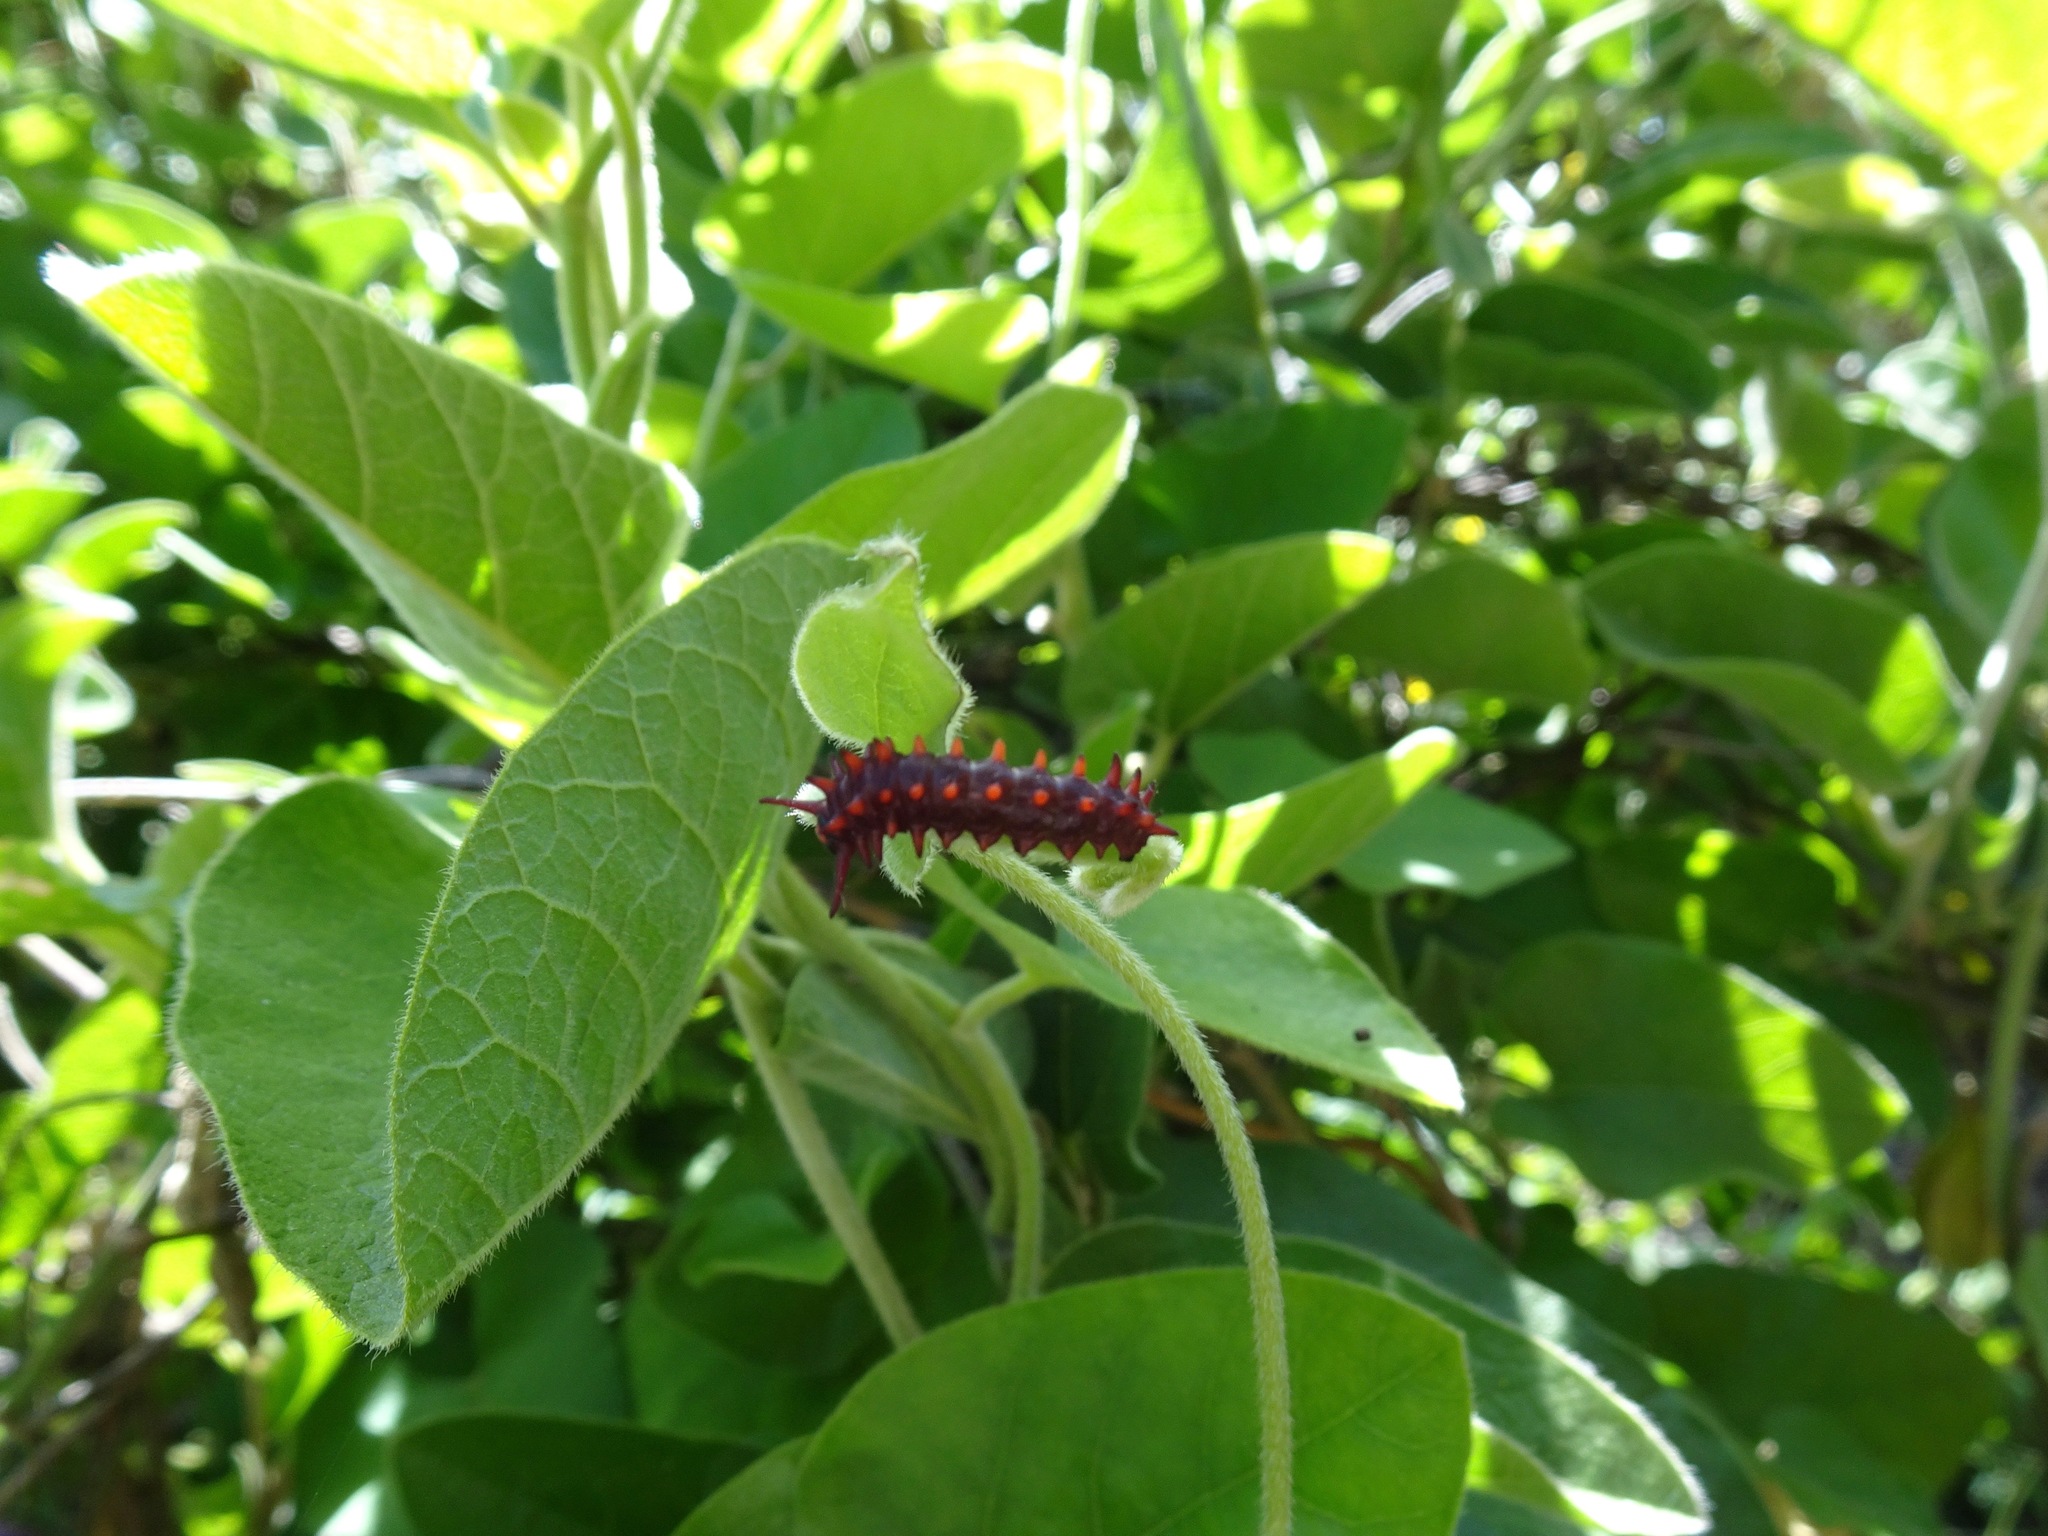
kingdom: Animalia
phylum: Arthropoda
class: Insecta
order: Lepidoptera
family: Papilionidae
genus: Battus
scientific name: Battus philenor
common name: Pipevine swallowtail
